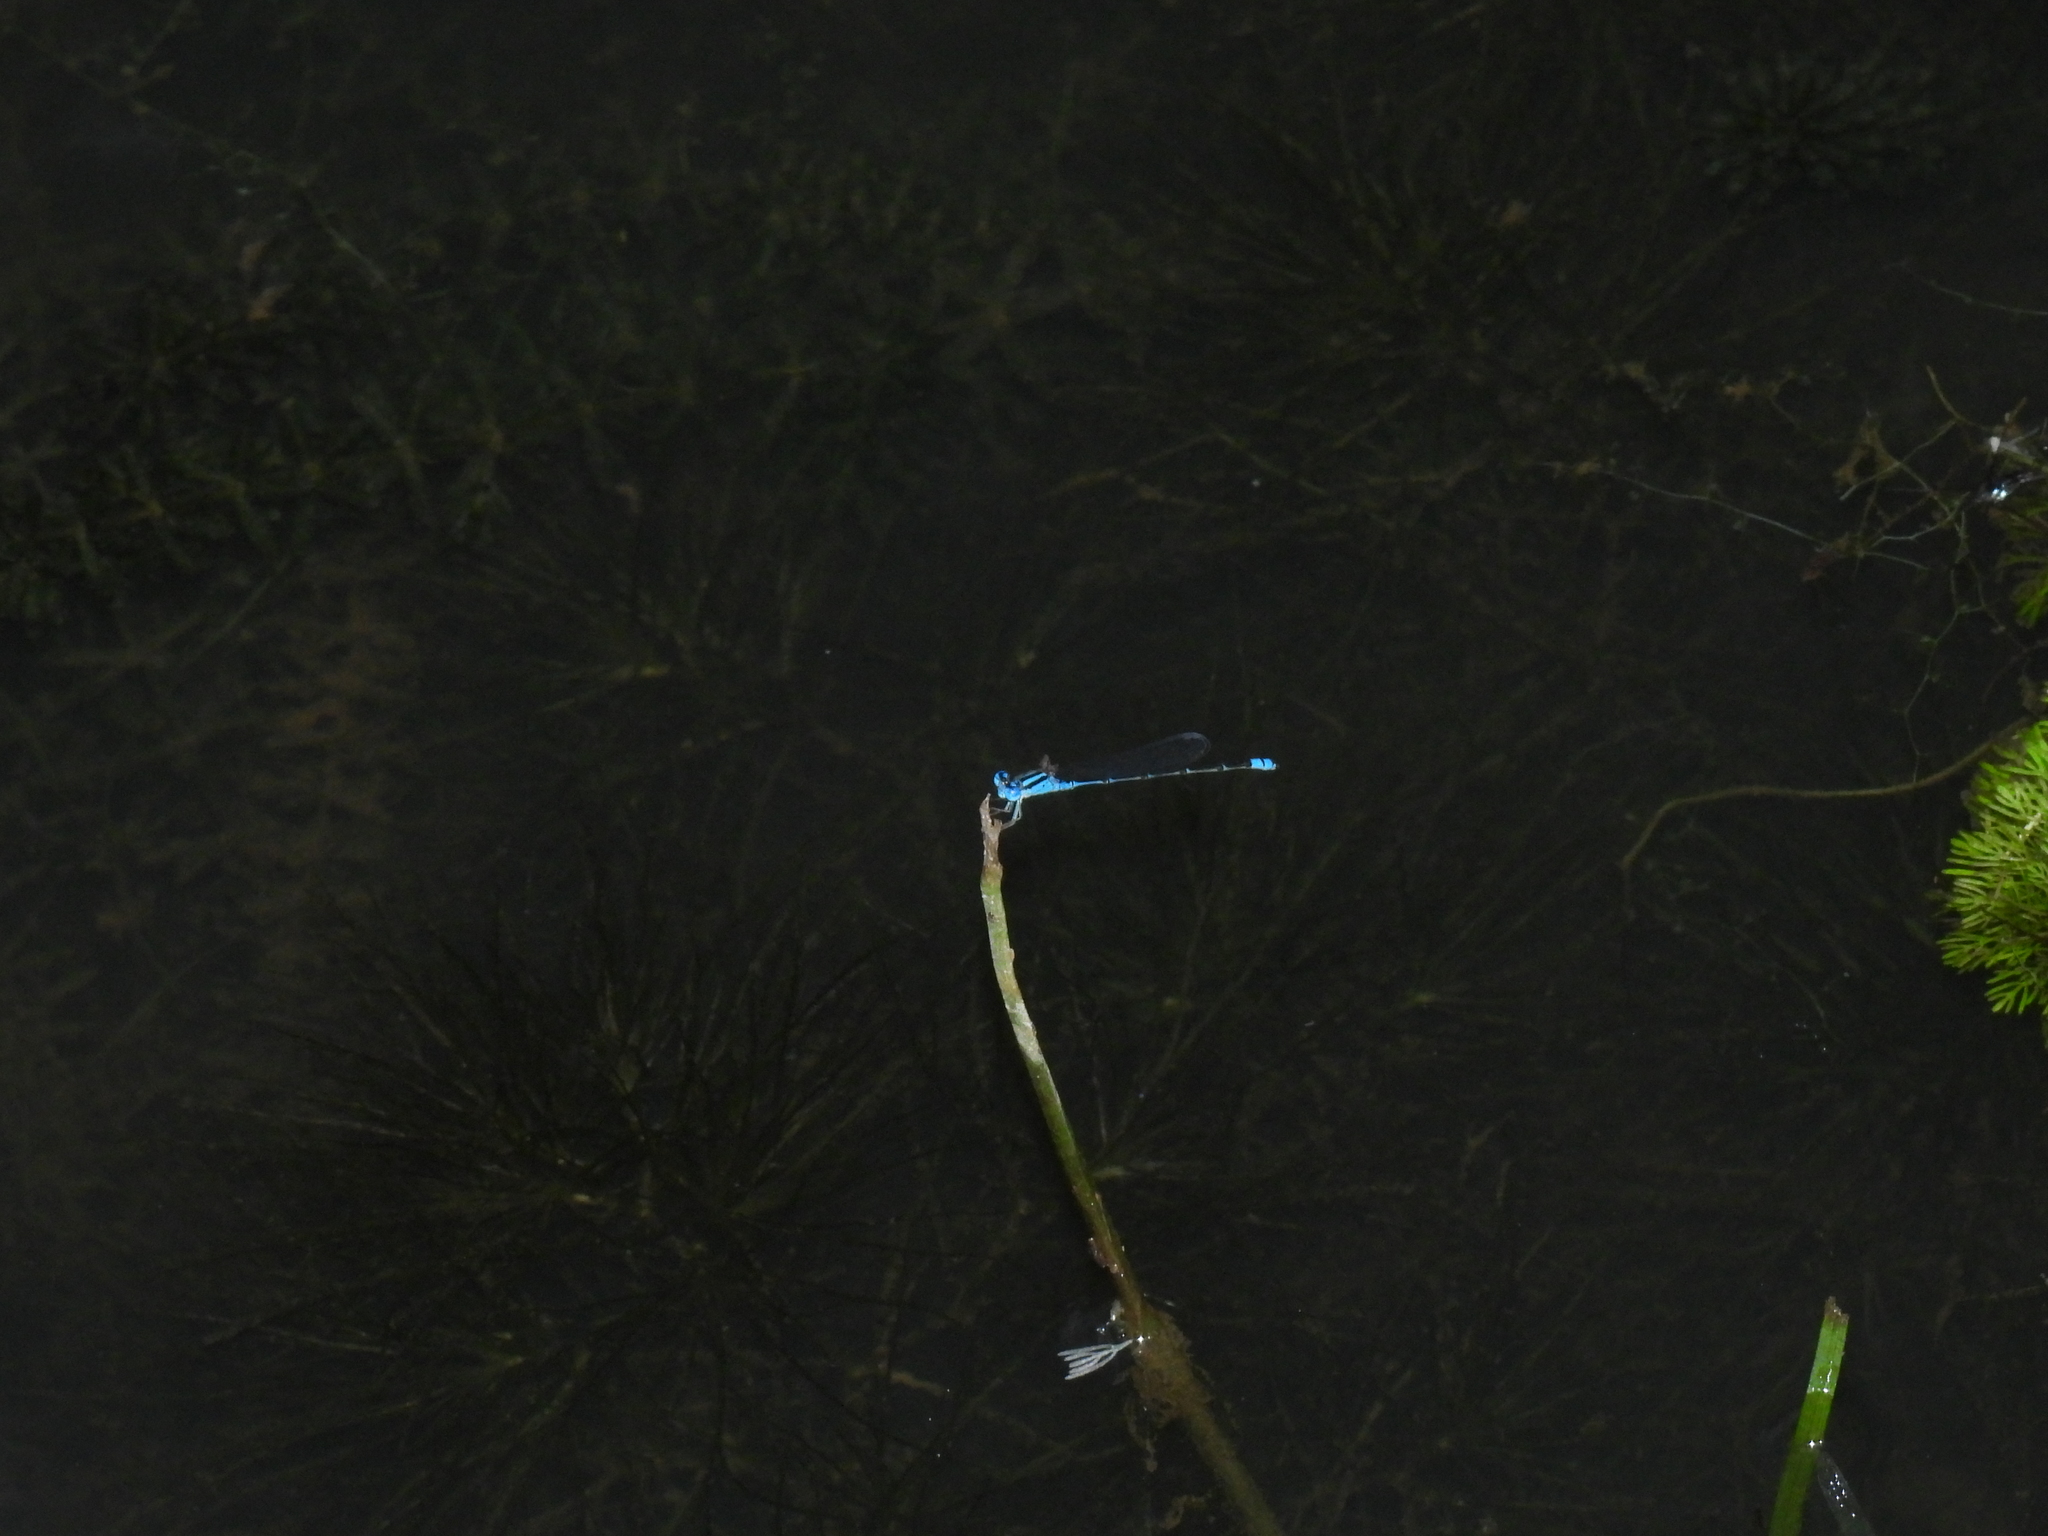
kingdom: Animalia
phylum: Arthropoda
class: Insecta
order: Odonata
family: Coenagrionidae
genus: Pseudagrion
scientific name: Pseudagrion microcephalum
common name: Blue riverdamsel
